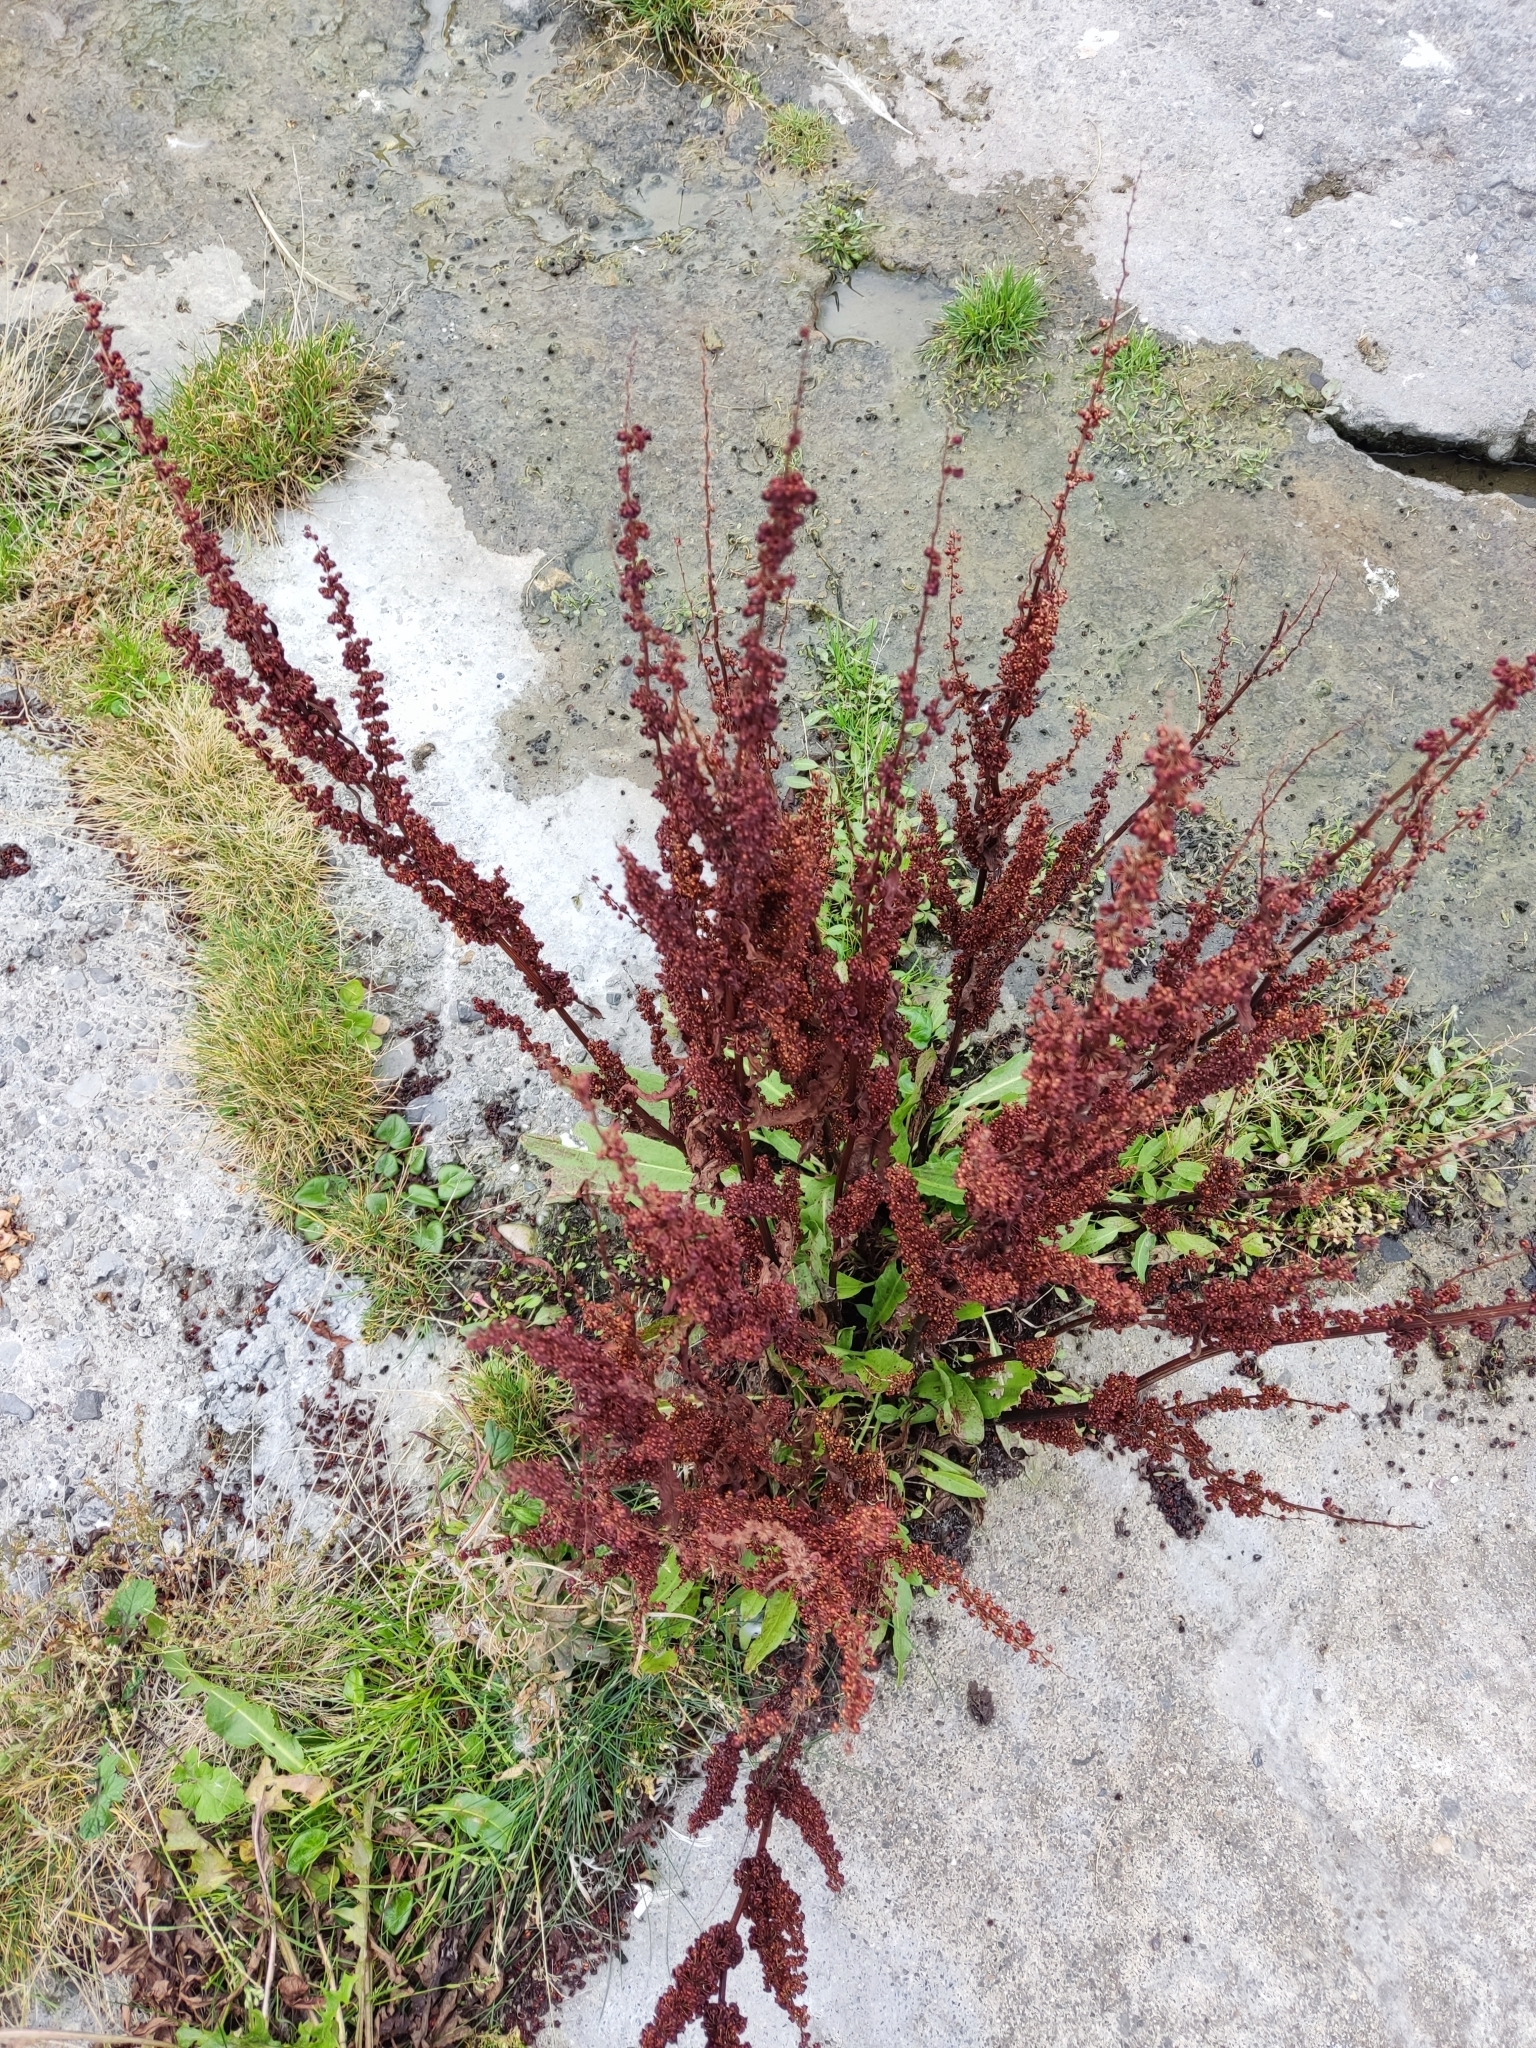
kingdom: Plantae
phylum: Tracheophyta
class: Magnoliopsida
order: Caryophyllales
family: Polygonaceae
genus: Rumex
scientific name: Rumex crispus
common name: Curled dock
